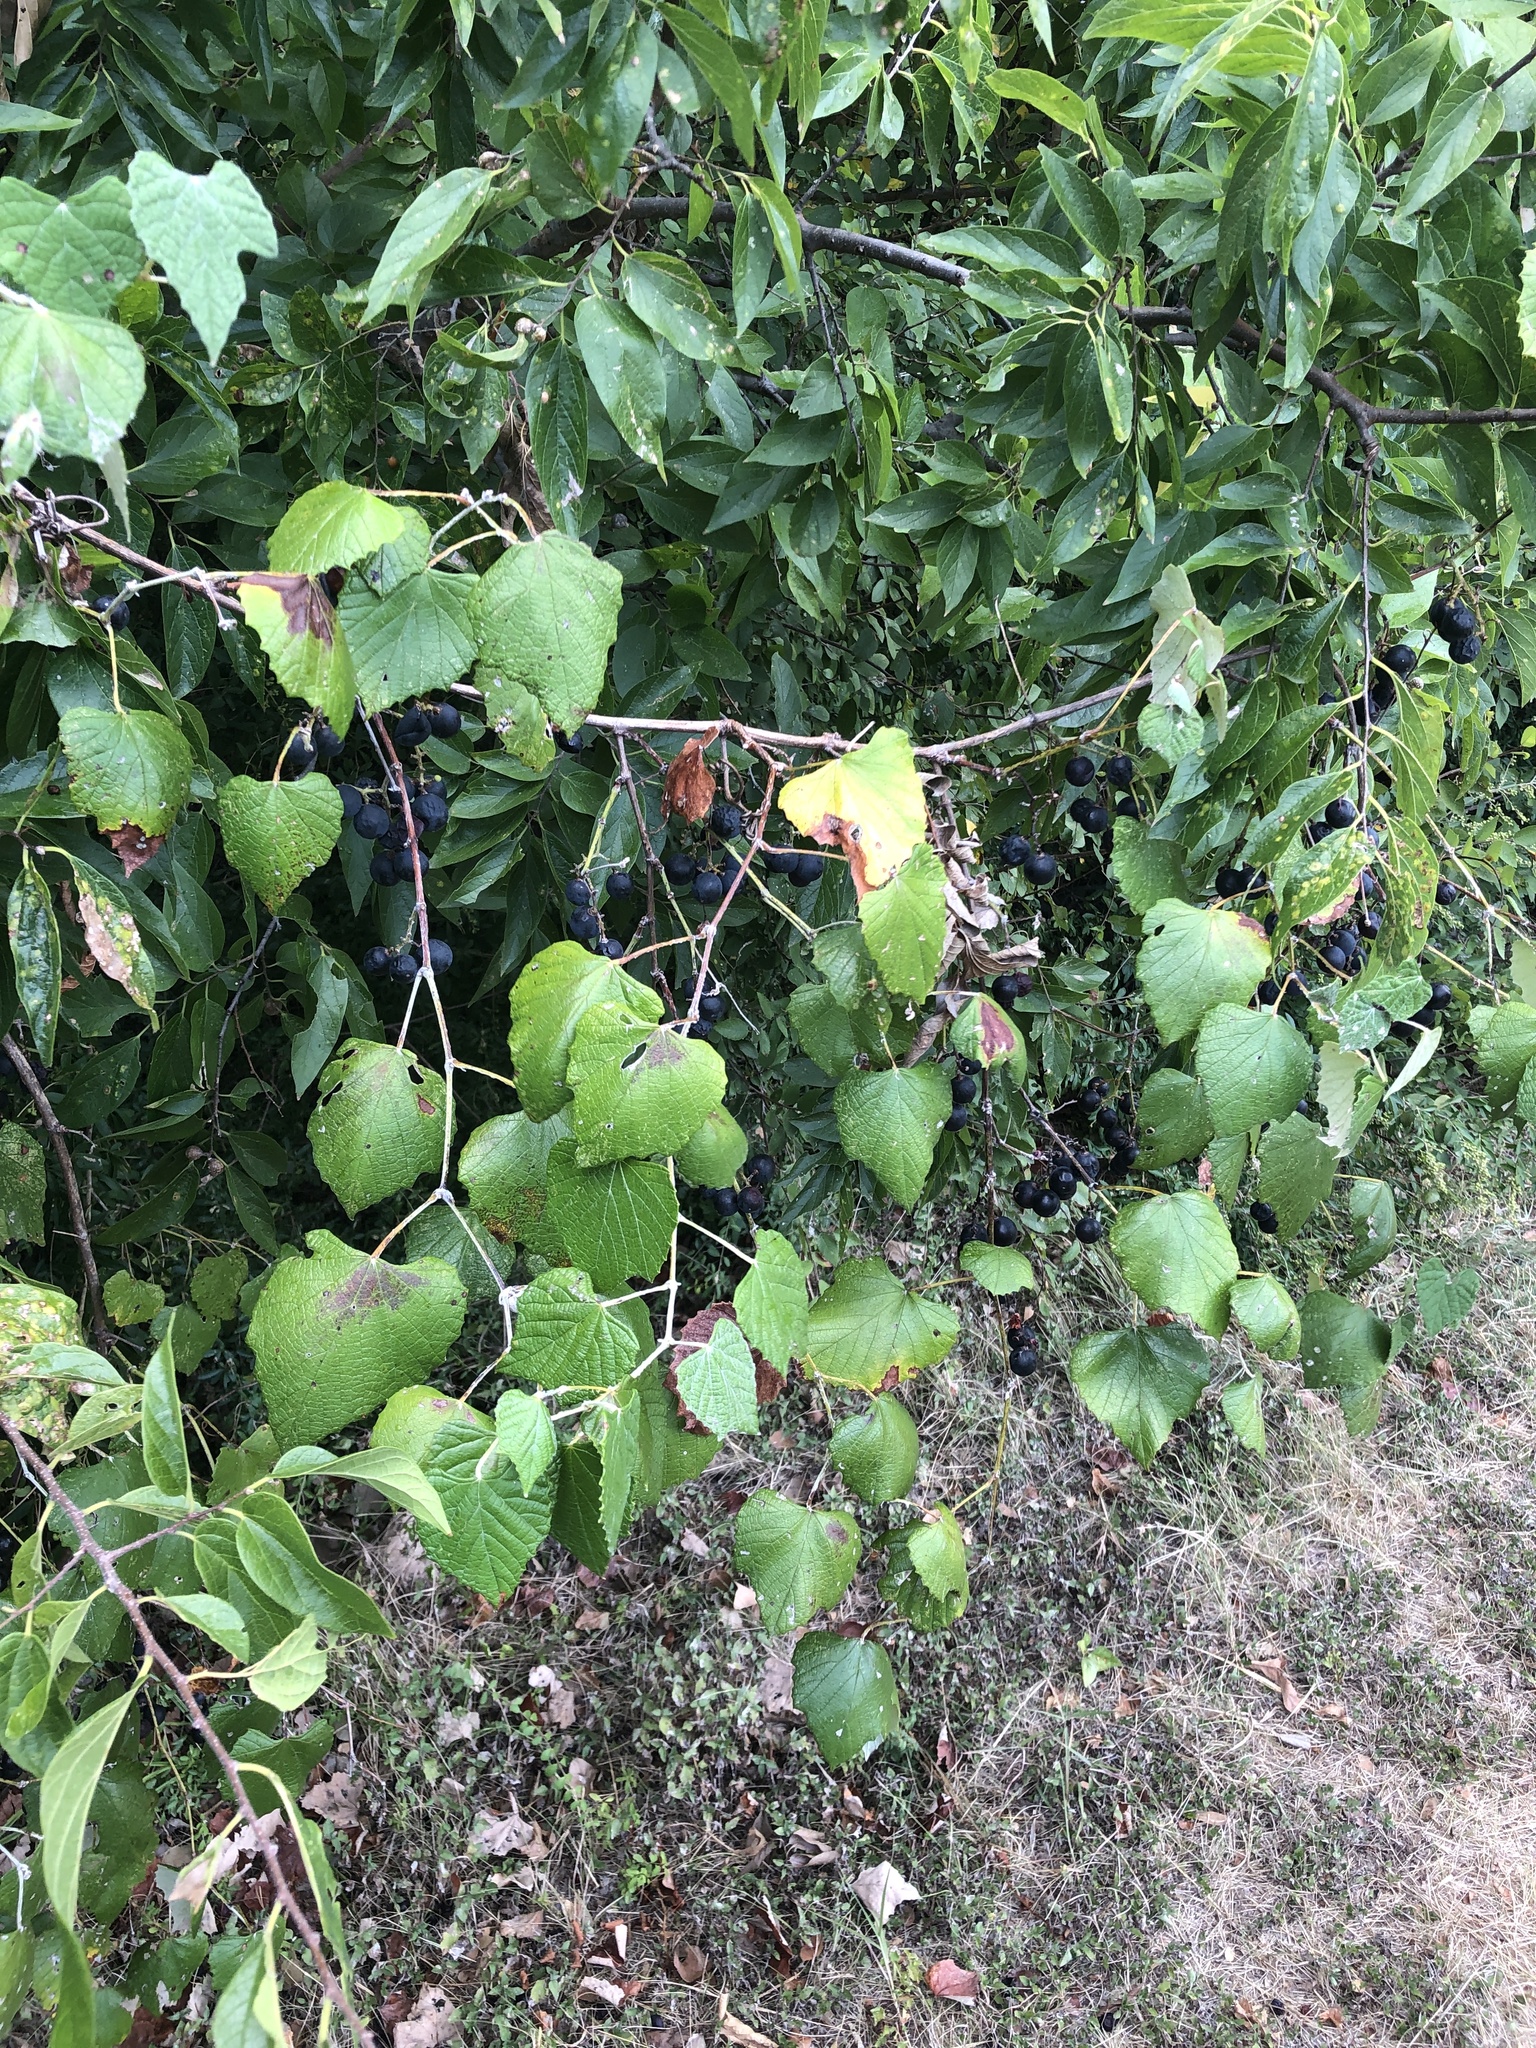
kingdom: Plantae
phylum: Tracheophyta
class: Magnoliopsida
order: Vitales
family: Vitaceae
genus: Vitis
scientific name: Vitis mustangensis
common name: Mustang grape
